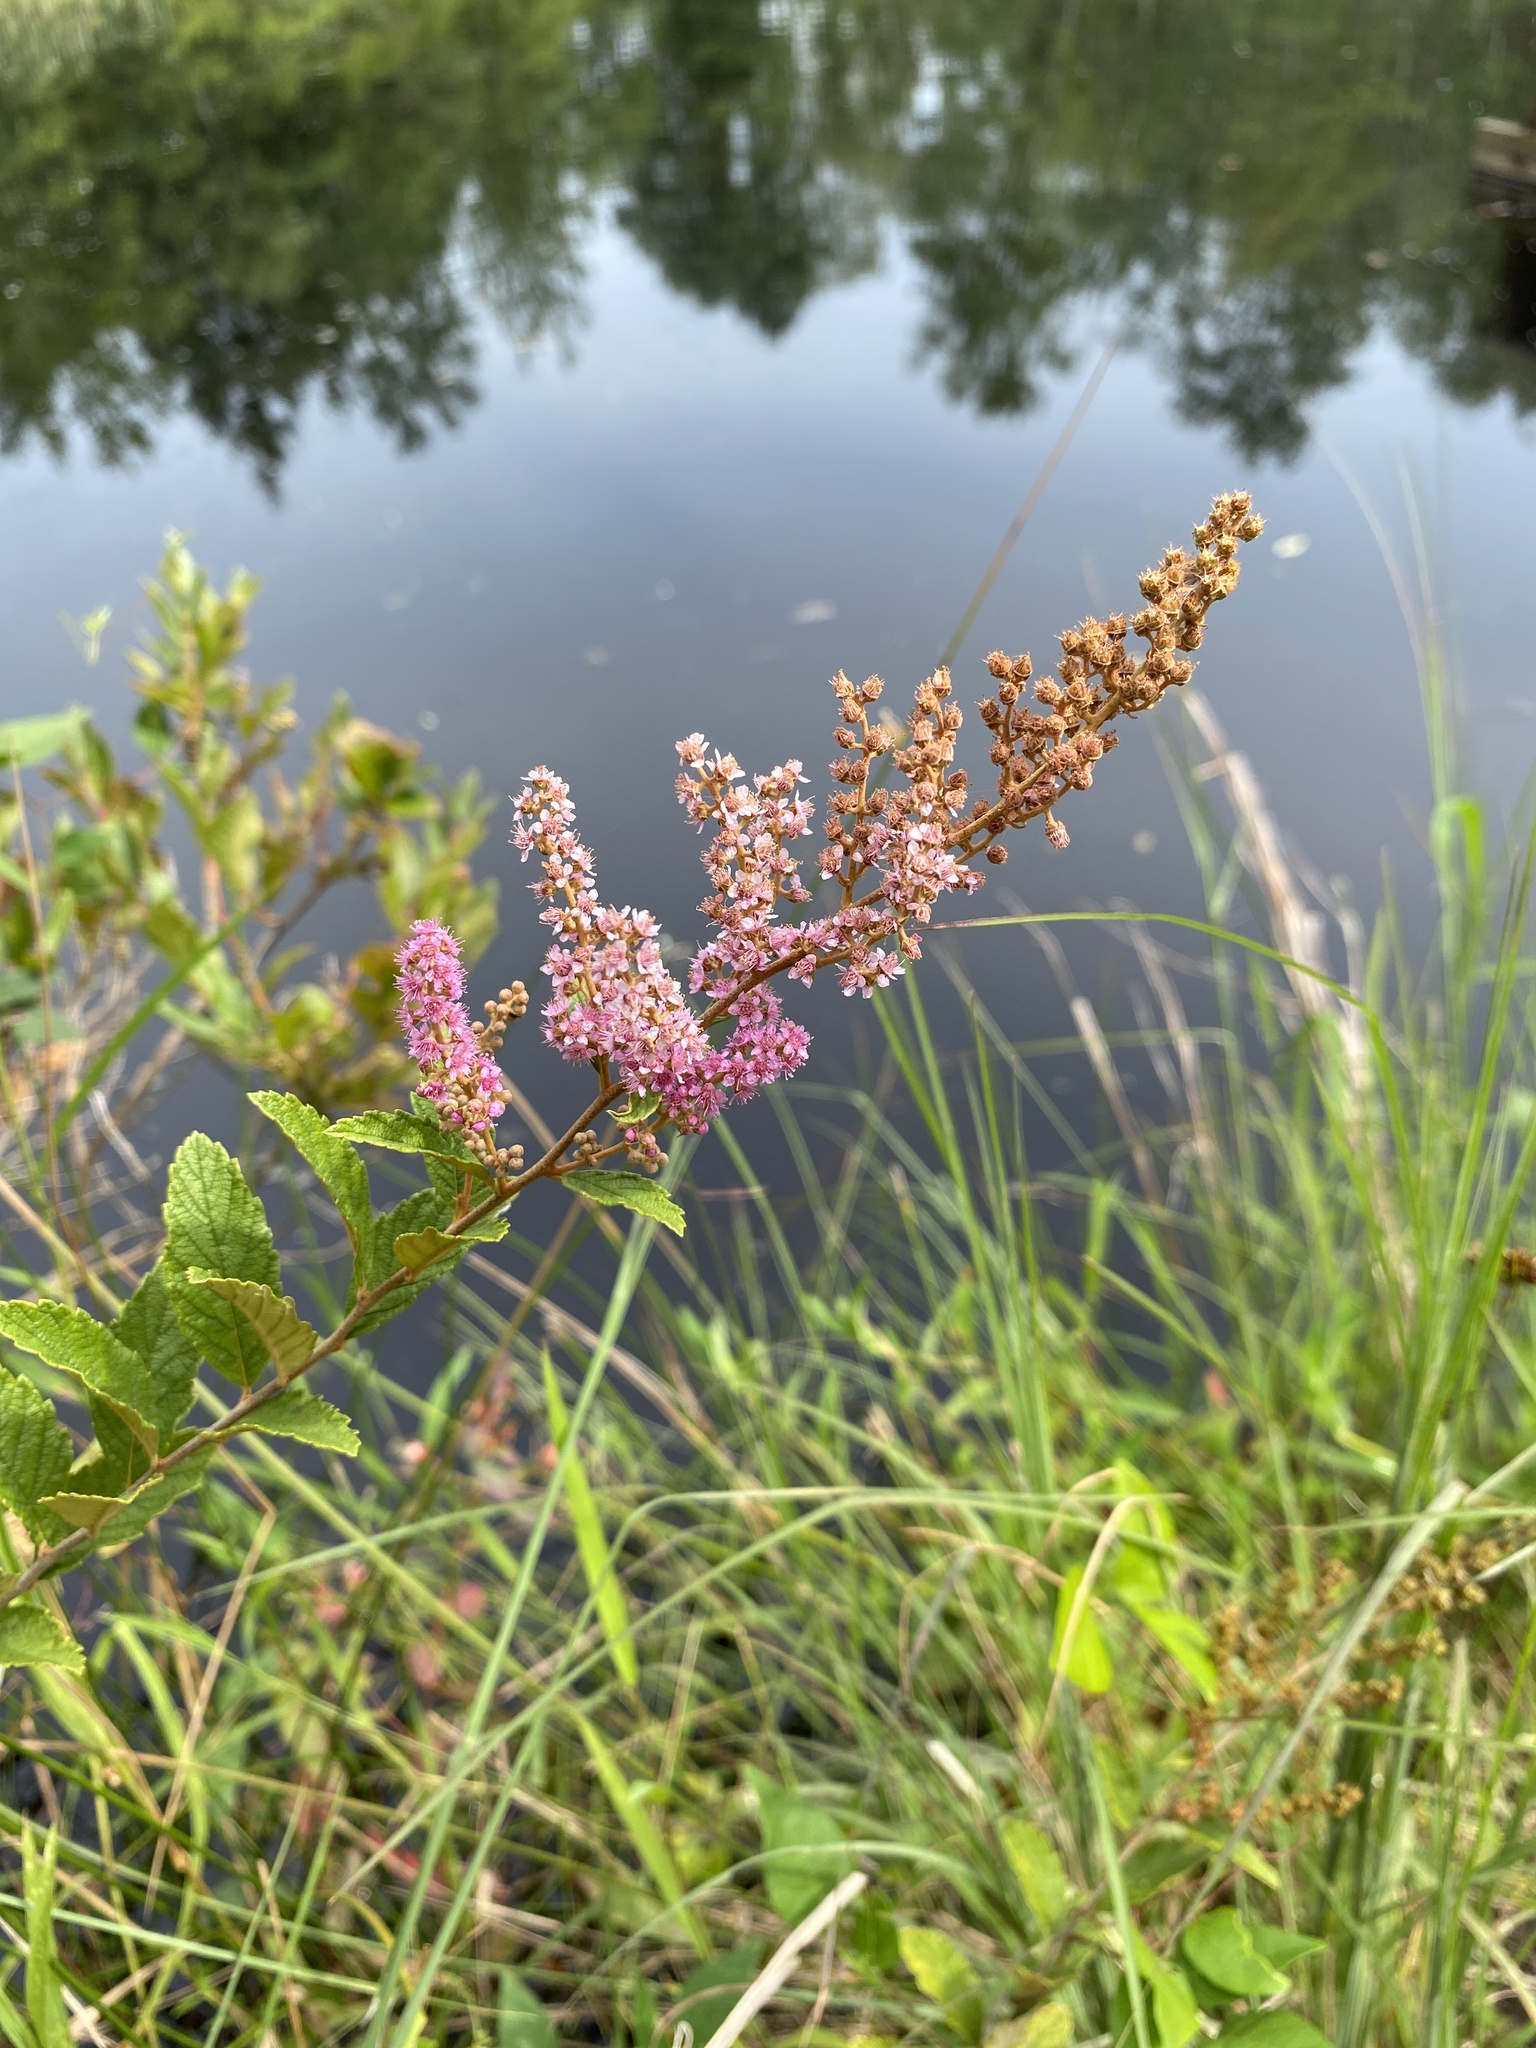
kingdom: Plantae
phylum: Tracheophyta
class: Magnoliopsida
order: Rosales
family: Rosaceae
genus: Spiraea
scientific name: Spiraea tomentosa
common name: Hardhack
